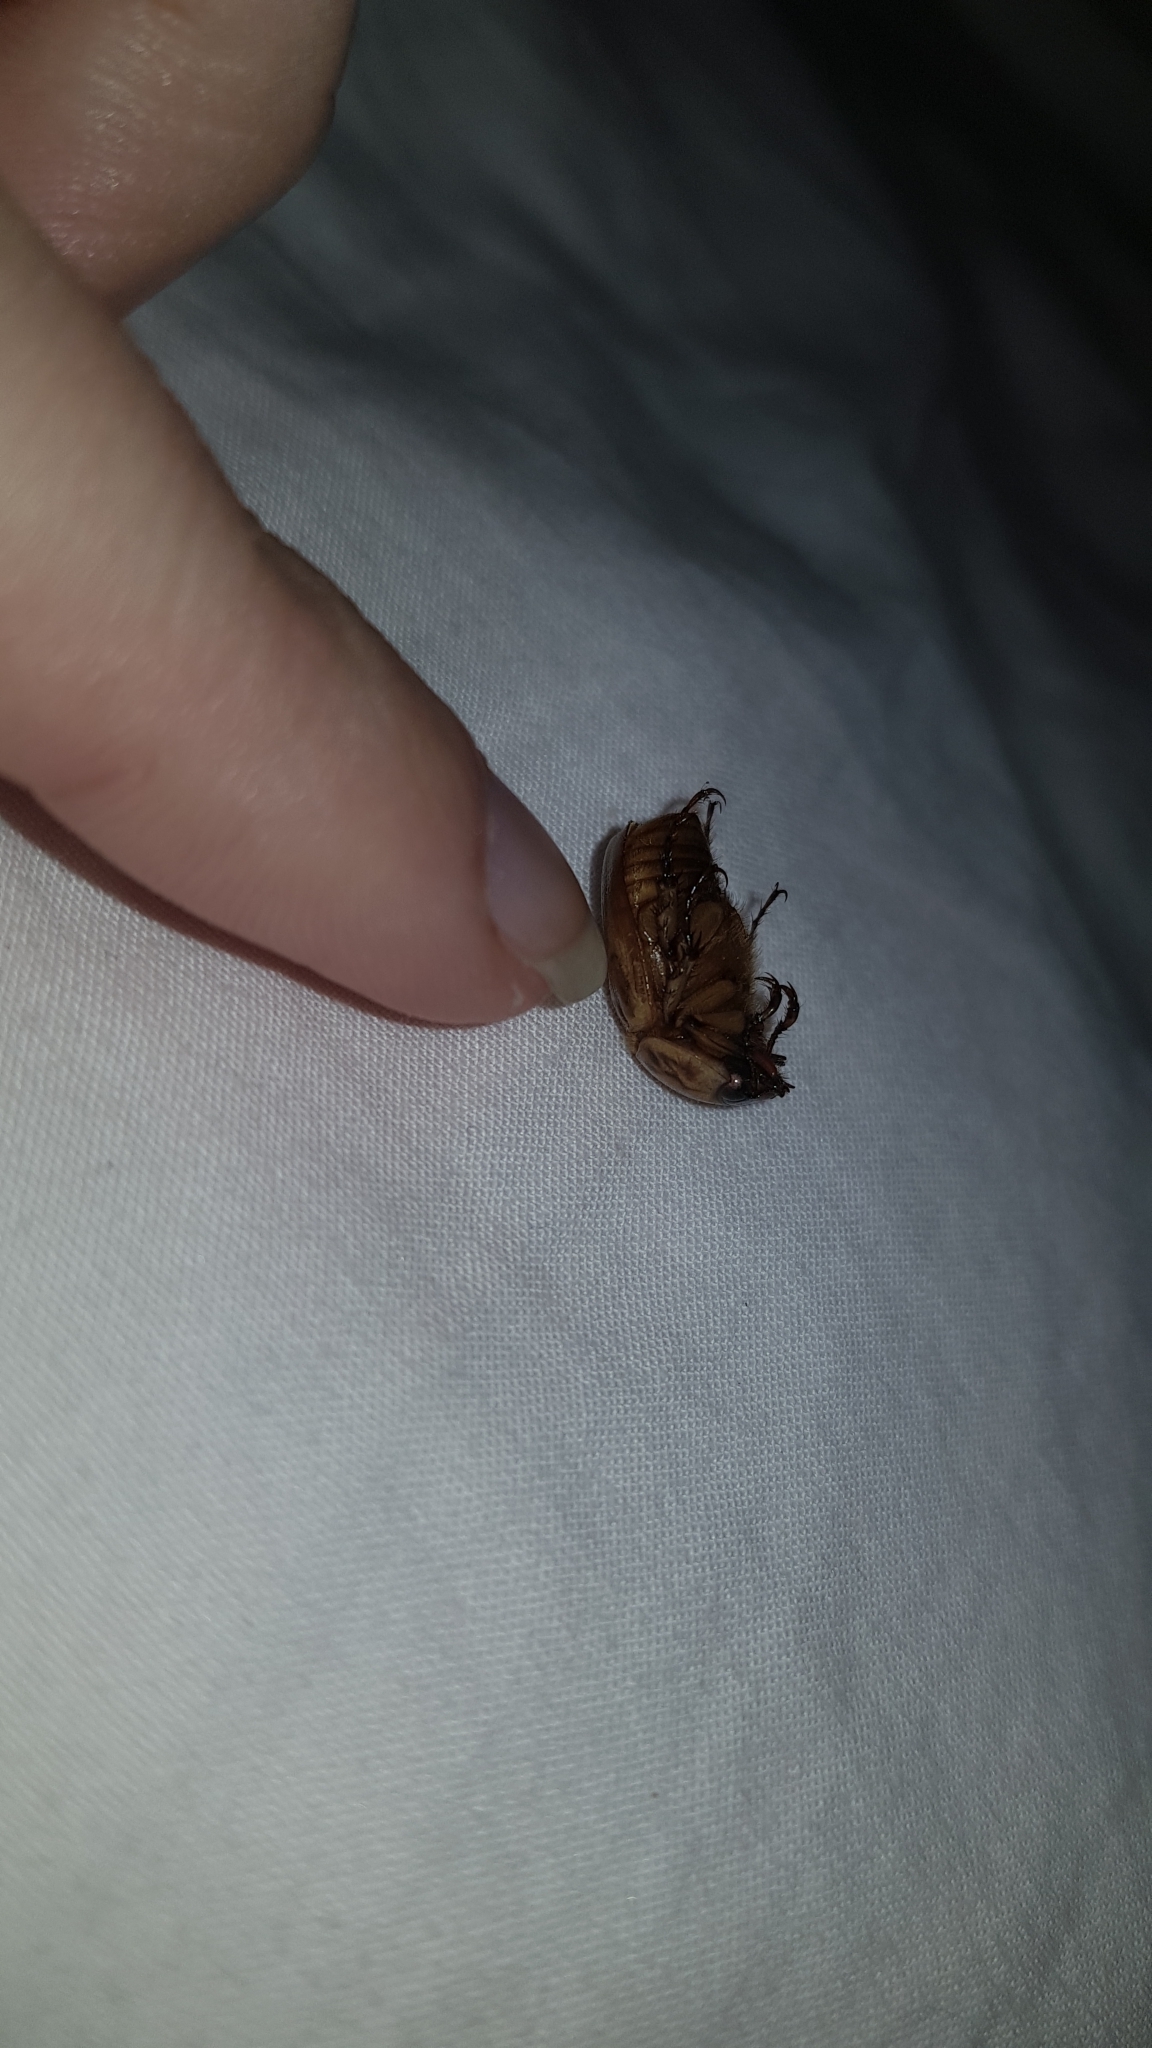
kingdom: Animalia
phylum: Arthropoda
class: Insecta
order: Coleoptera
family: Scarabaeidae
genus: Cyclocephala
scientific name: Cyclocephala signaticollis
